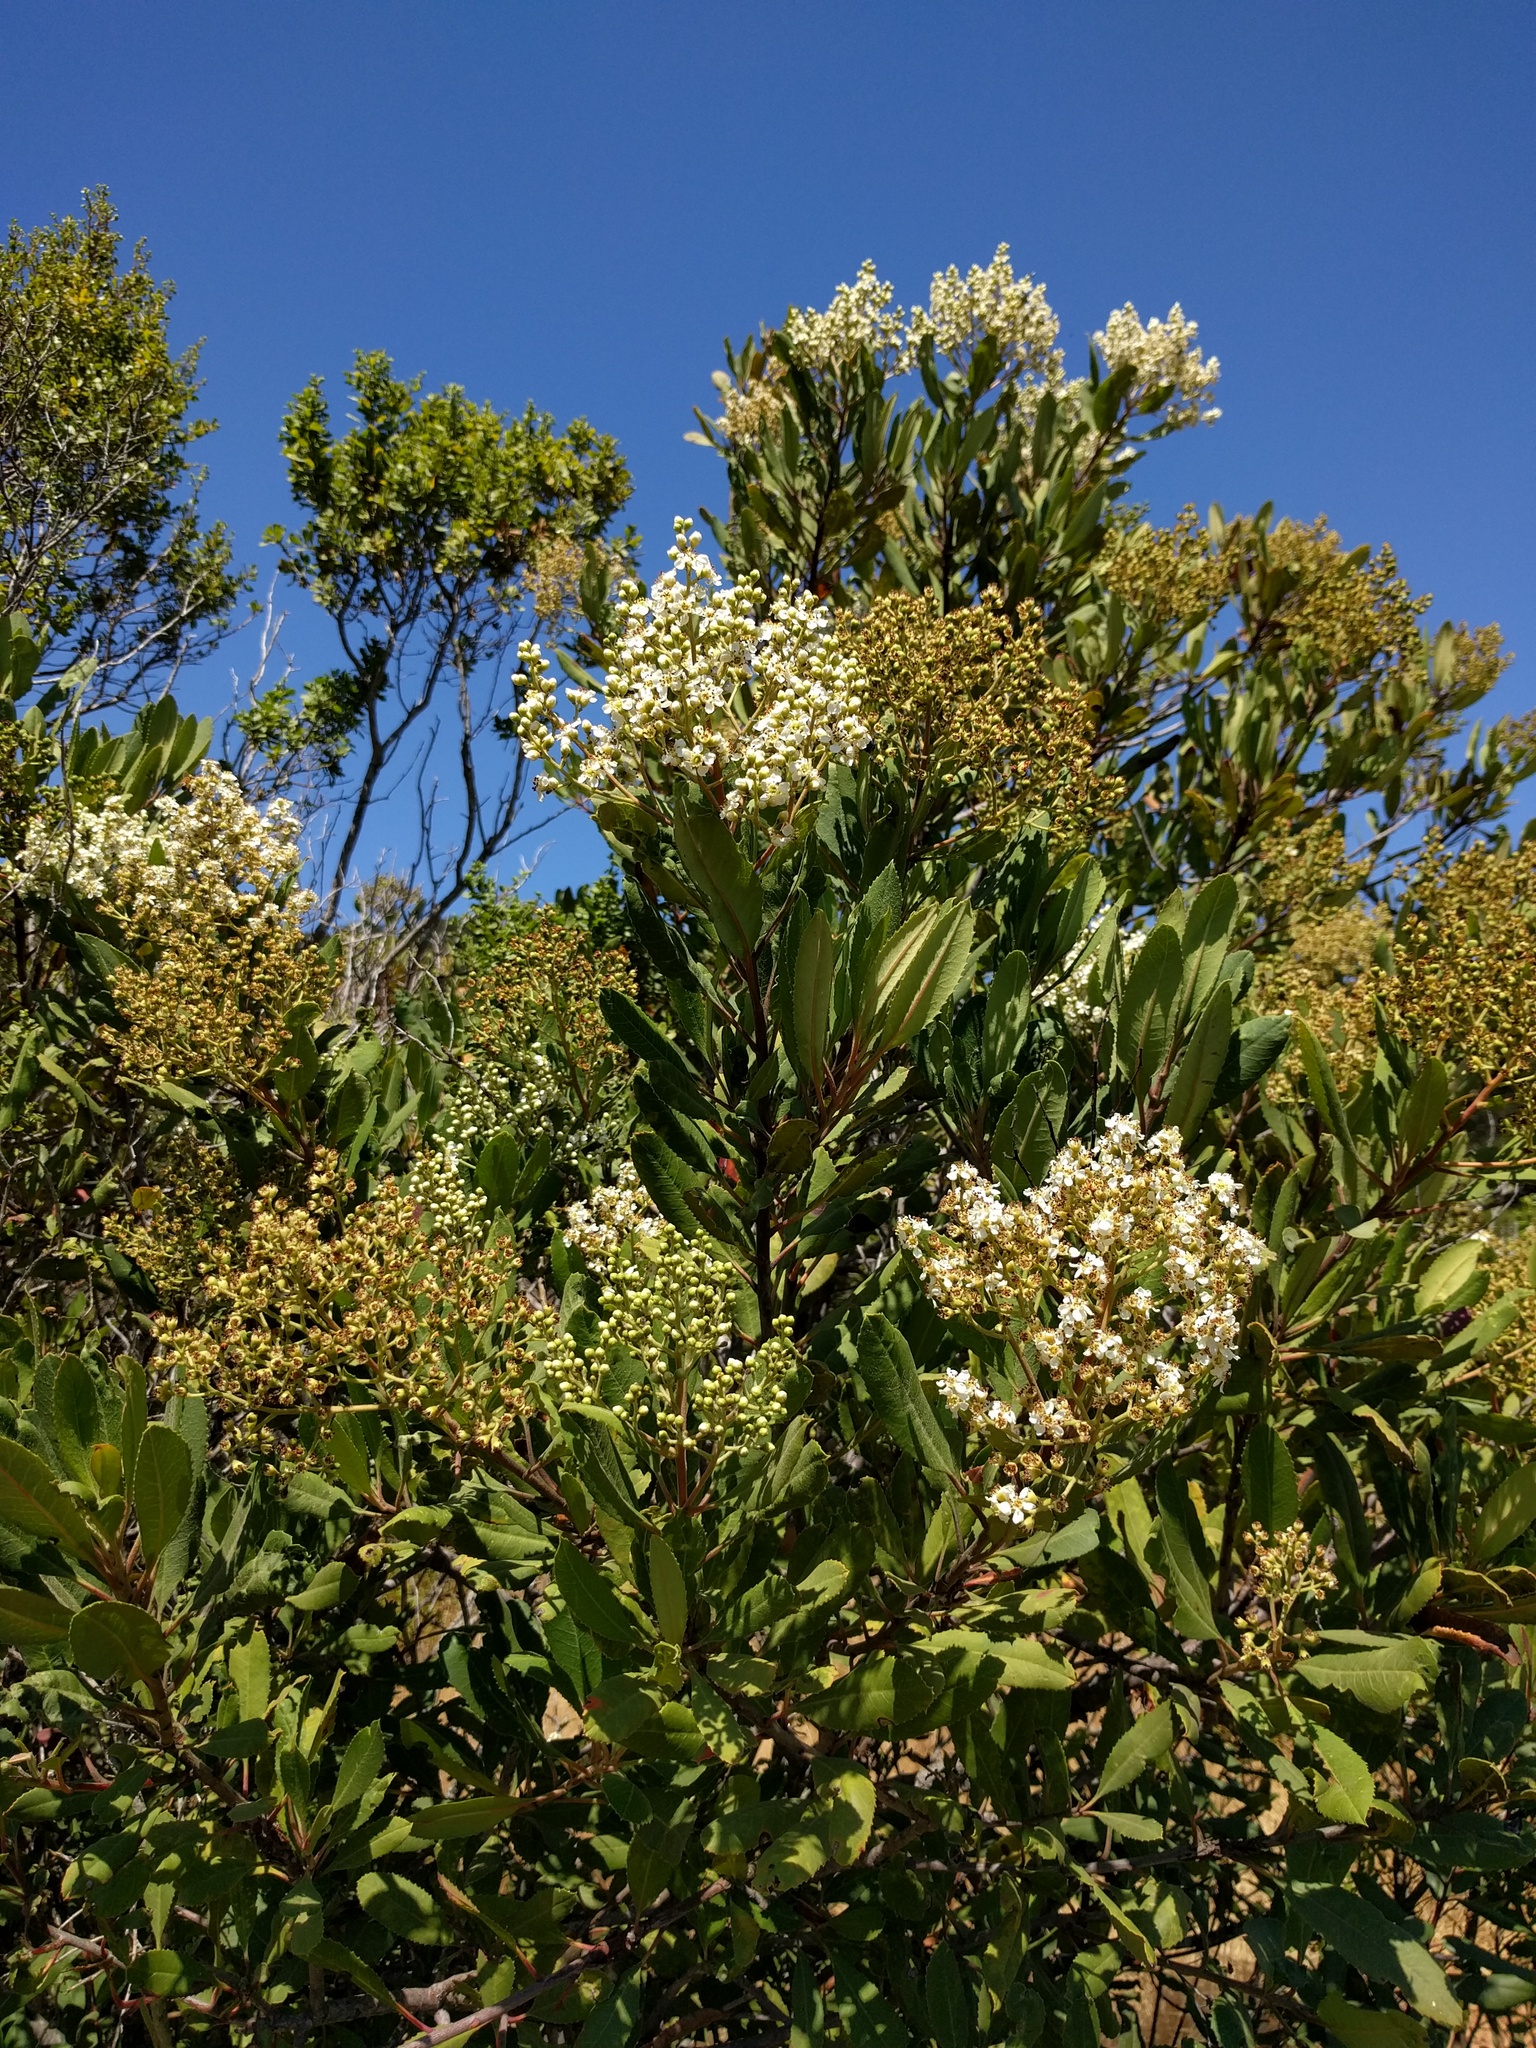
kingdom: Plantae
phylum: Tracheophyta
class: Magnoliopsida
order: Rosales
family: Rosaceae
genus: Heteromeles
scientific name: Heteromeles arbutifolia
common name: California-holly
